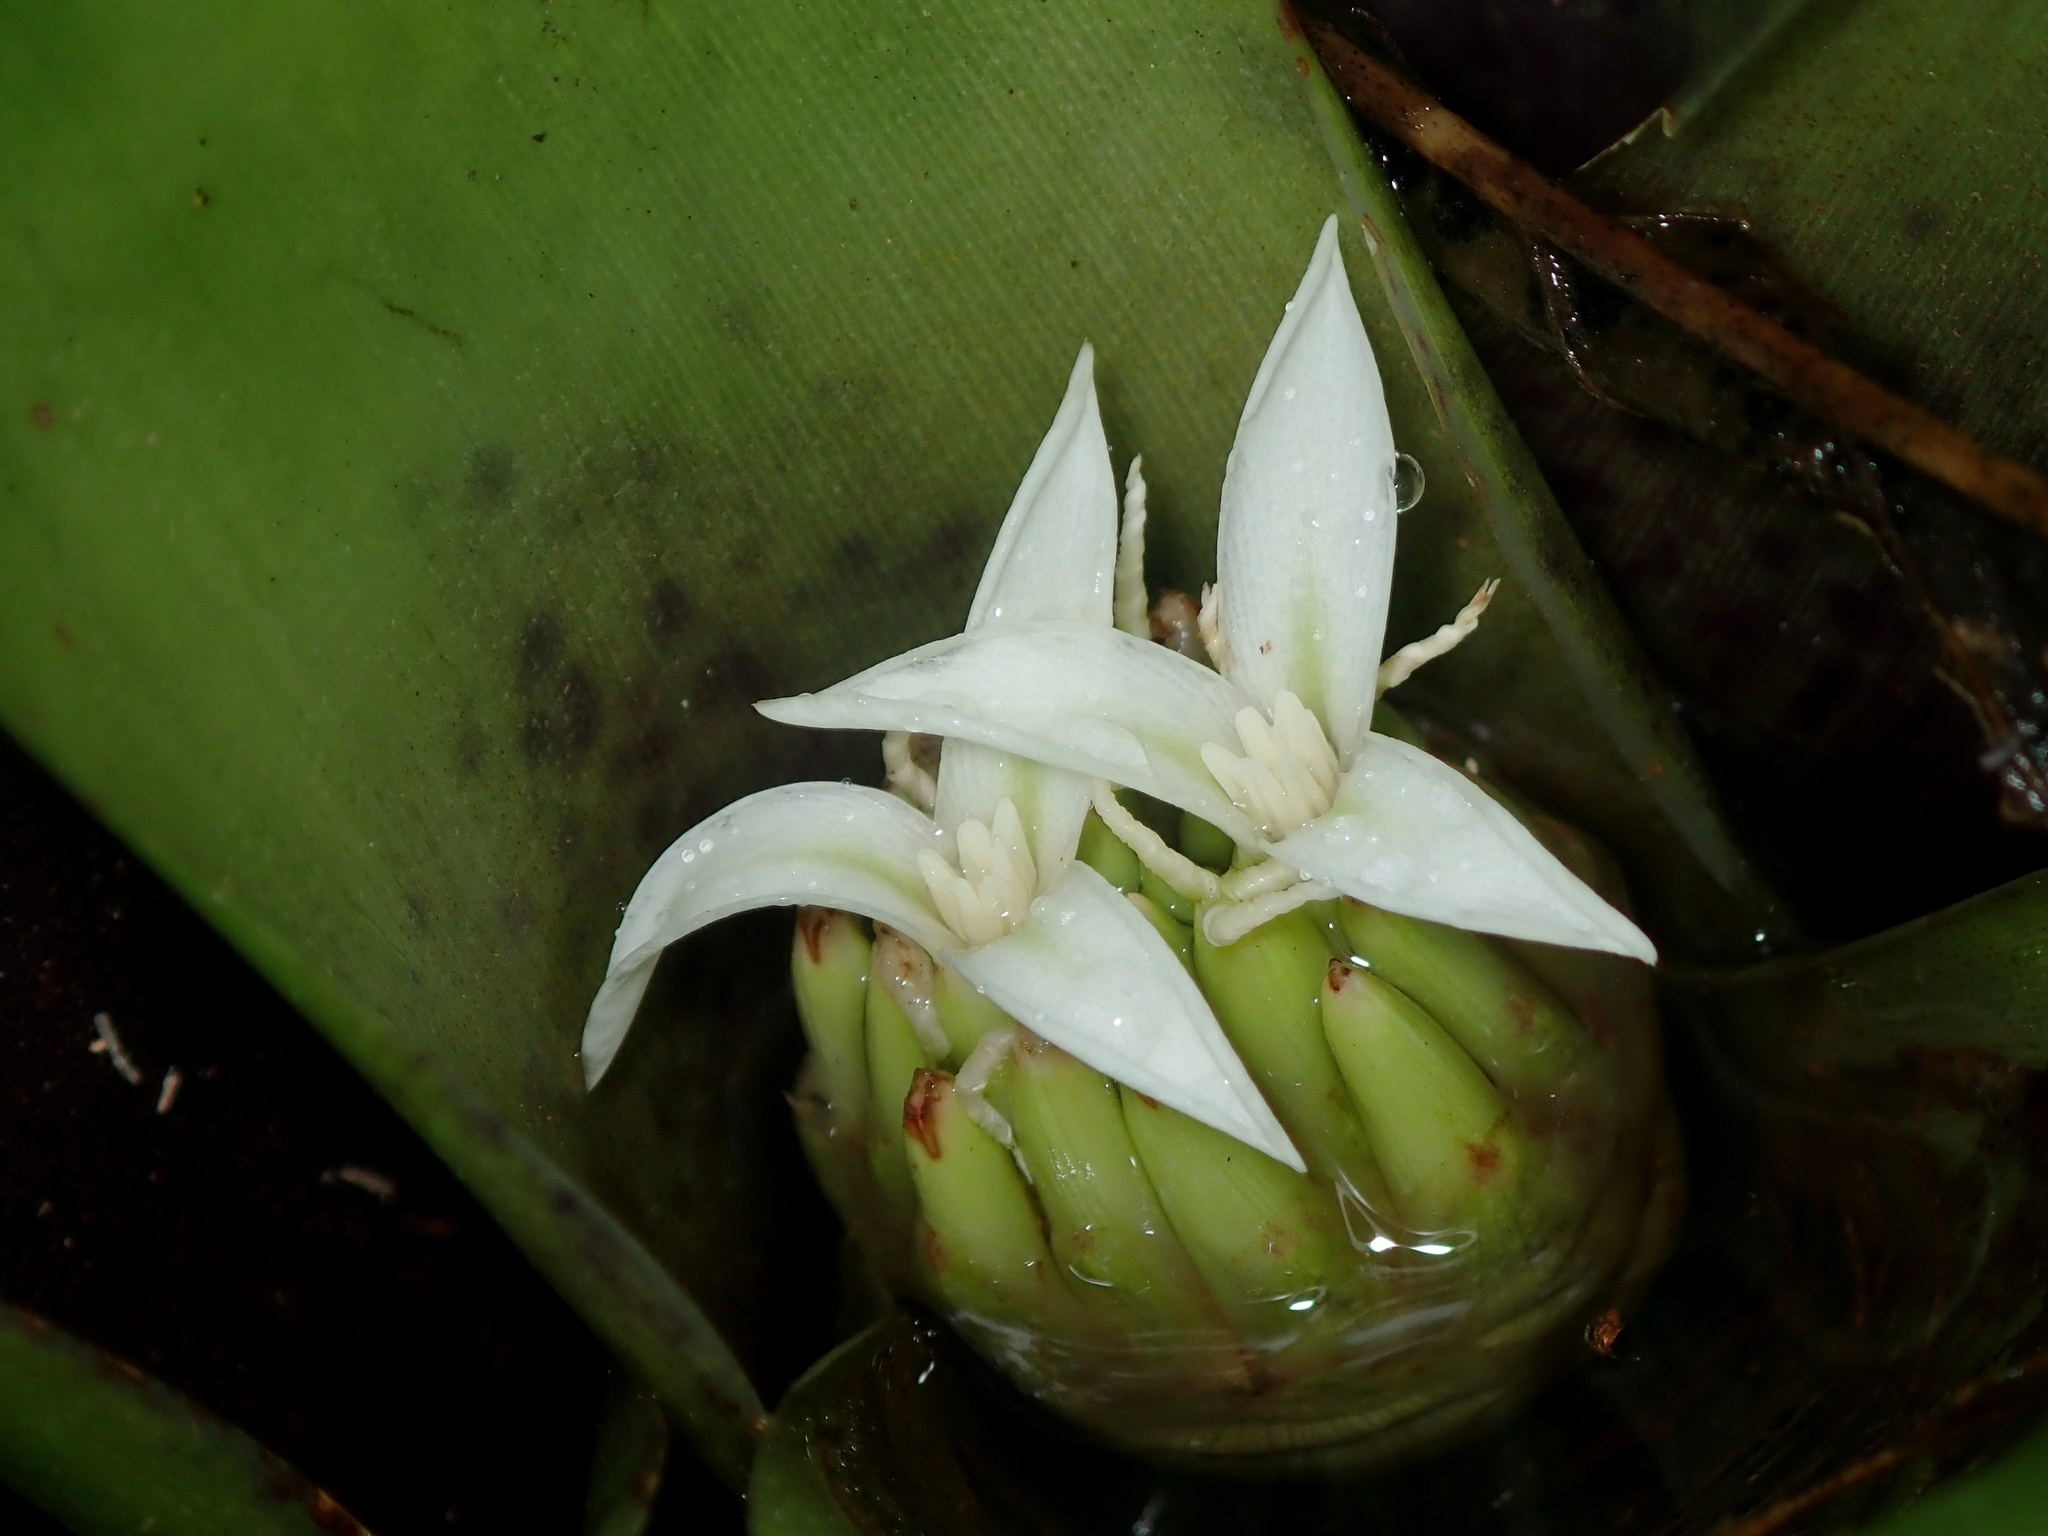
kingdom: Plantae
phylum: Tracheophyta
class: Liliopsida
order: Poales
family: Bromeliaceae
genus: Neoregelia
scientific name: Neoregelia laevis
